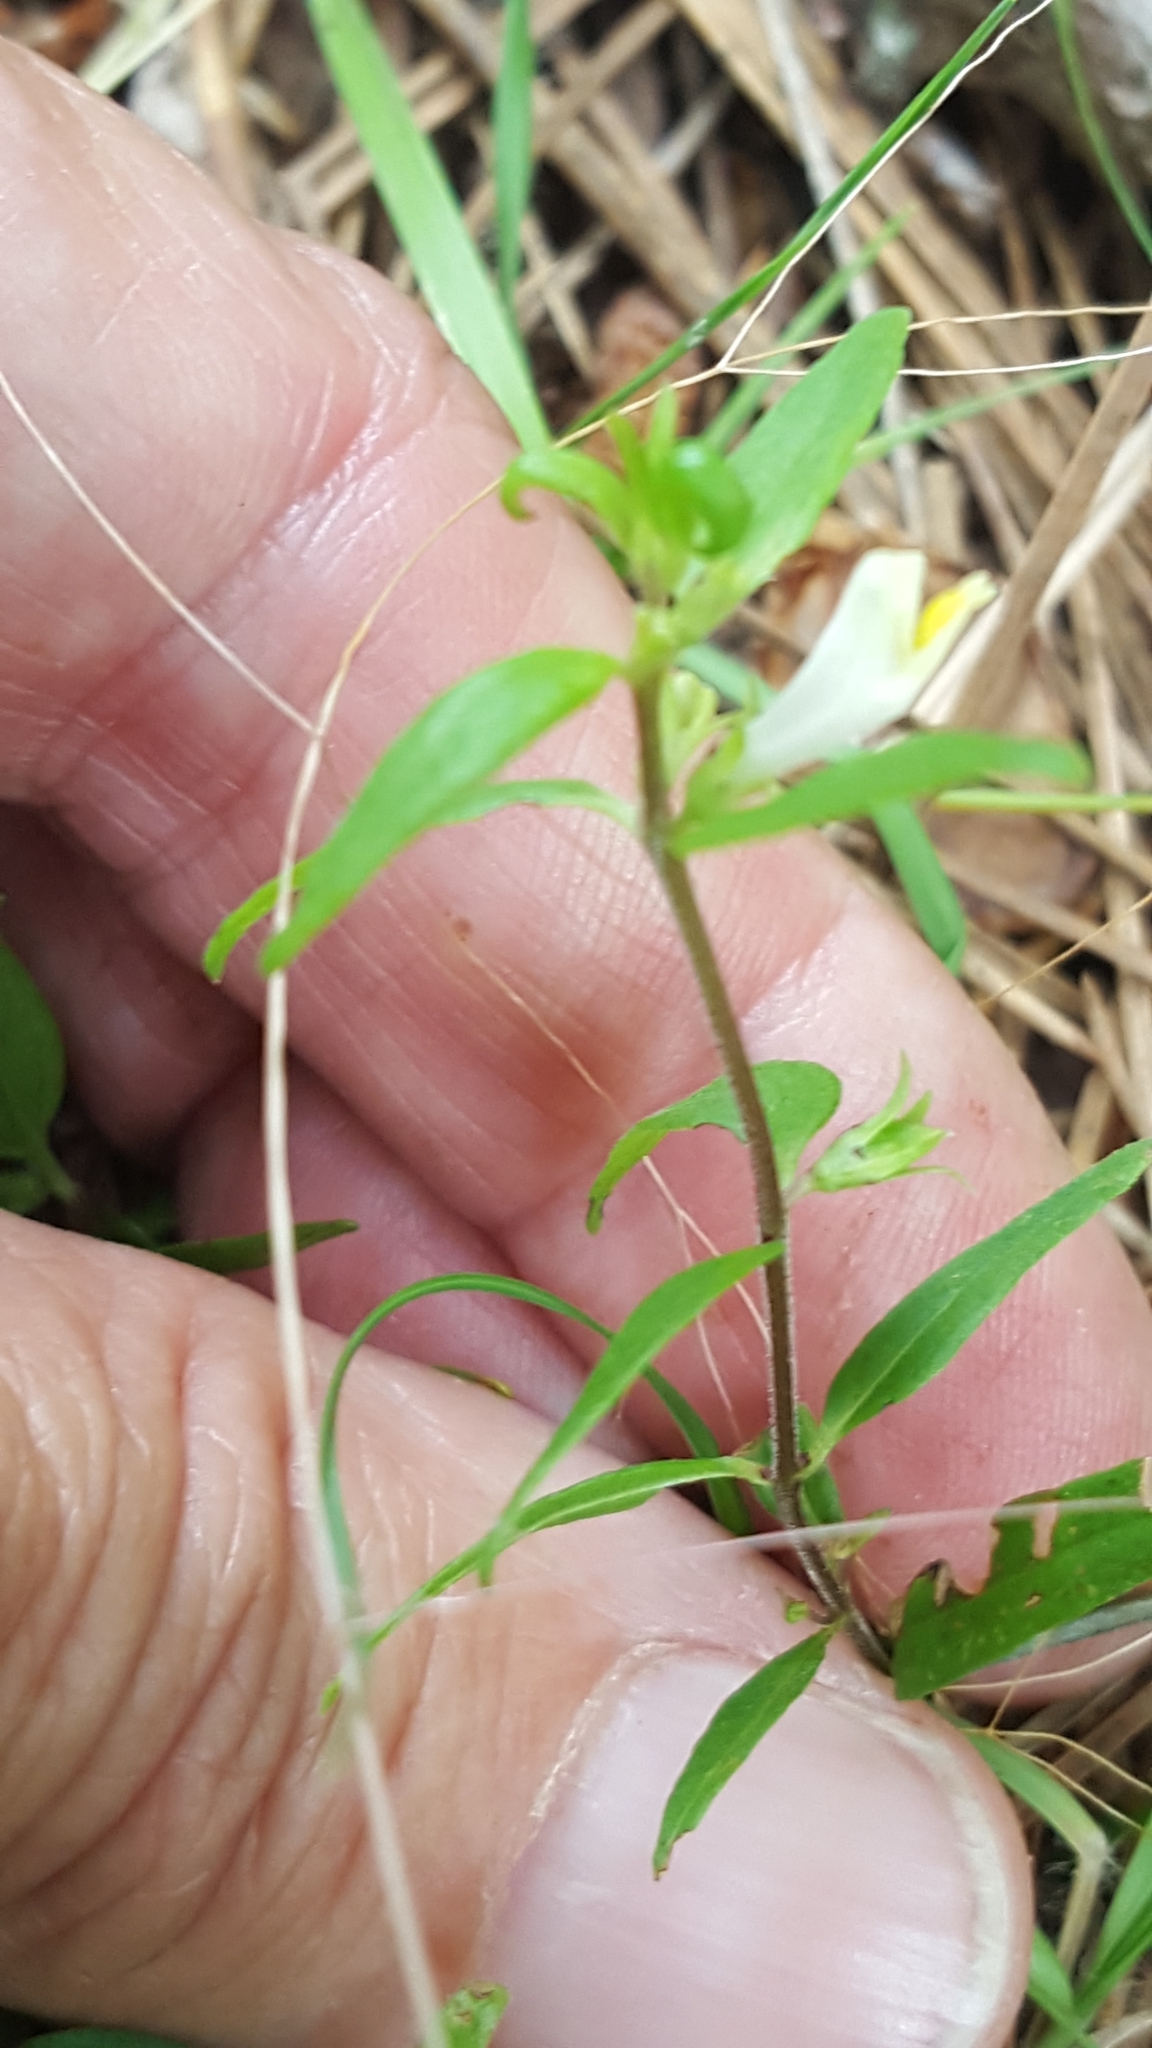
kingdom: Plantae
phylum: Tracheophyta
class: Magnoliopsida
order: Lamiales
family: Orobanchaceae
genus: Melampyrum
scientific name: Melampyrum lineare
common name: American cow-wheat
